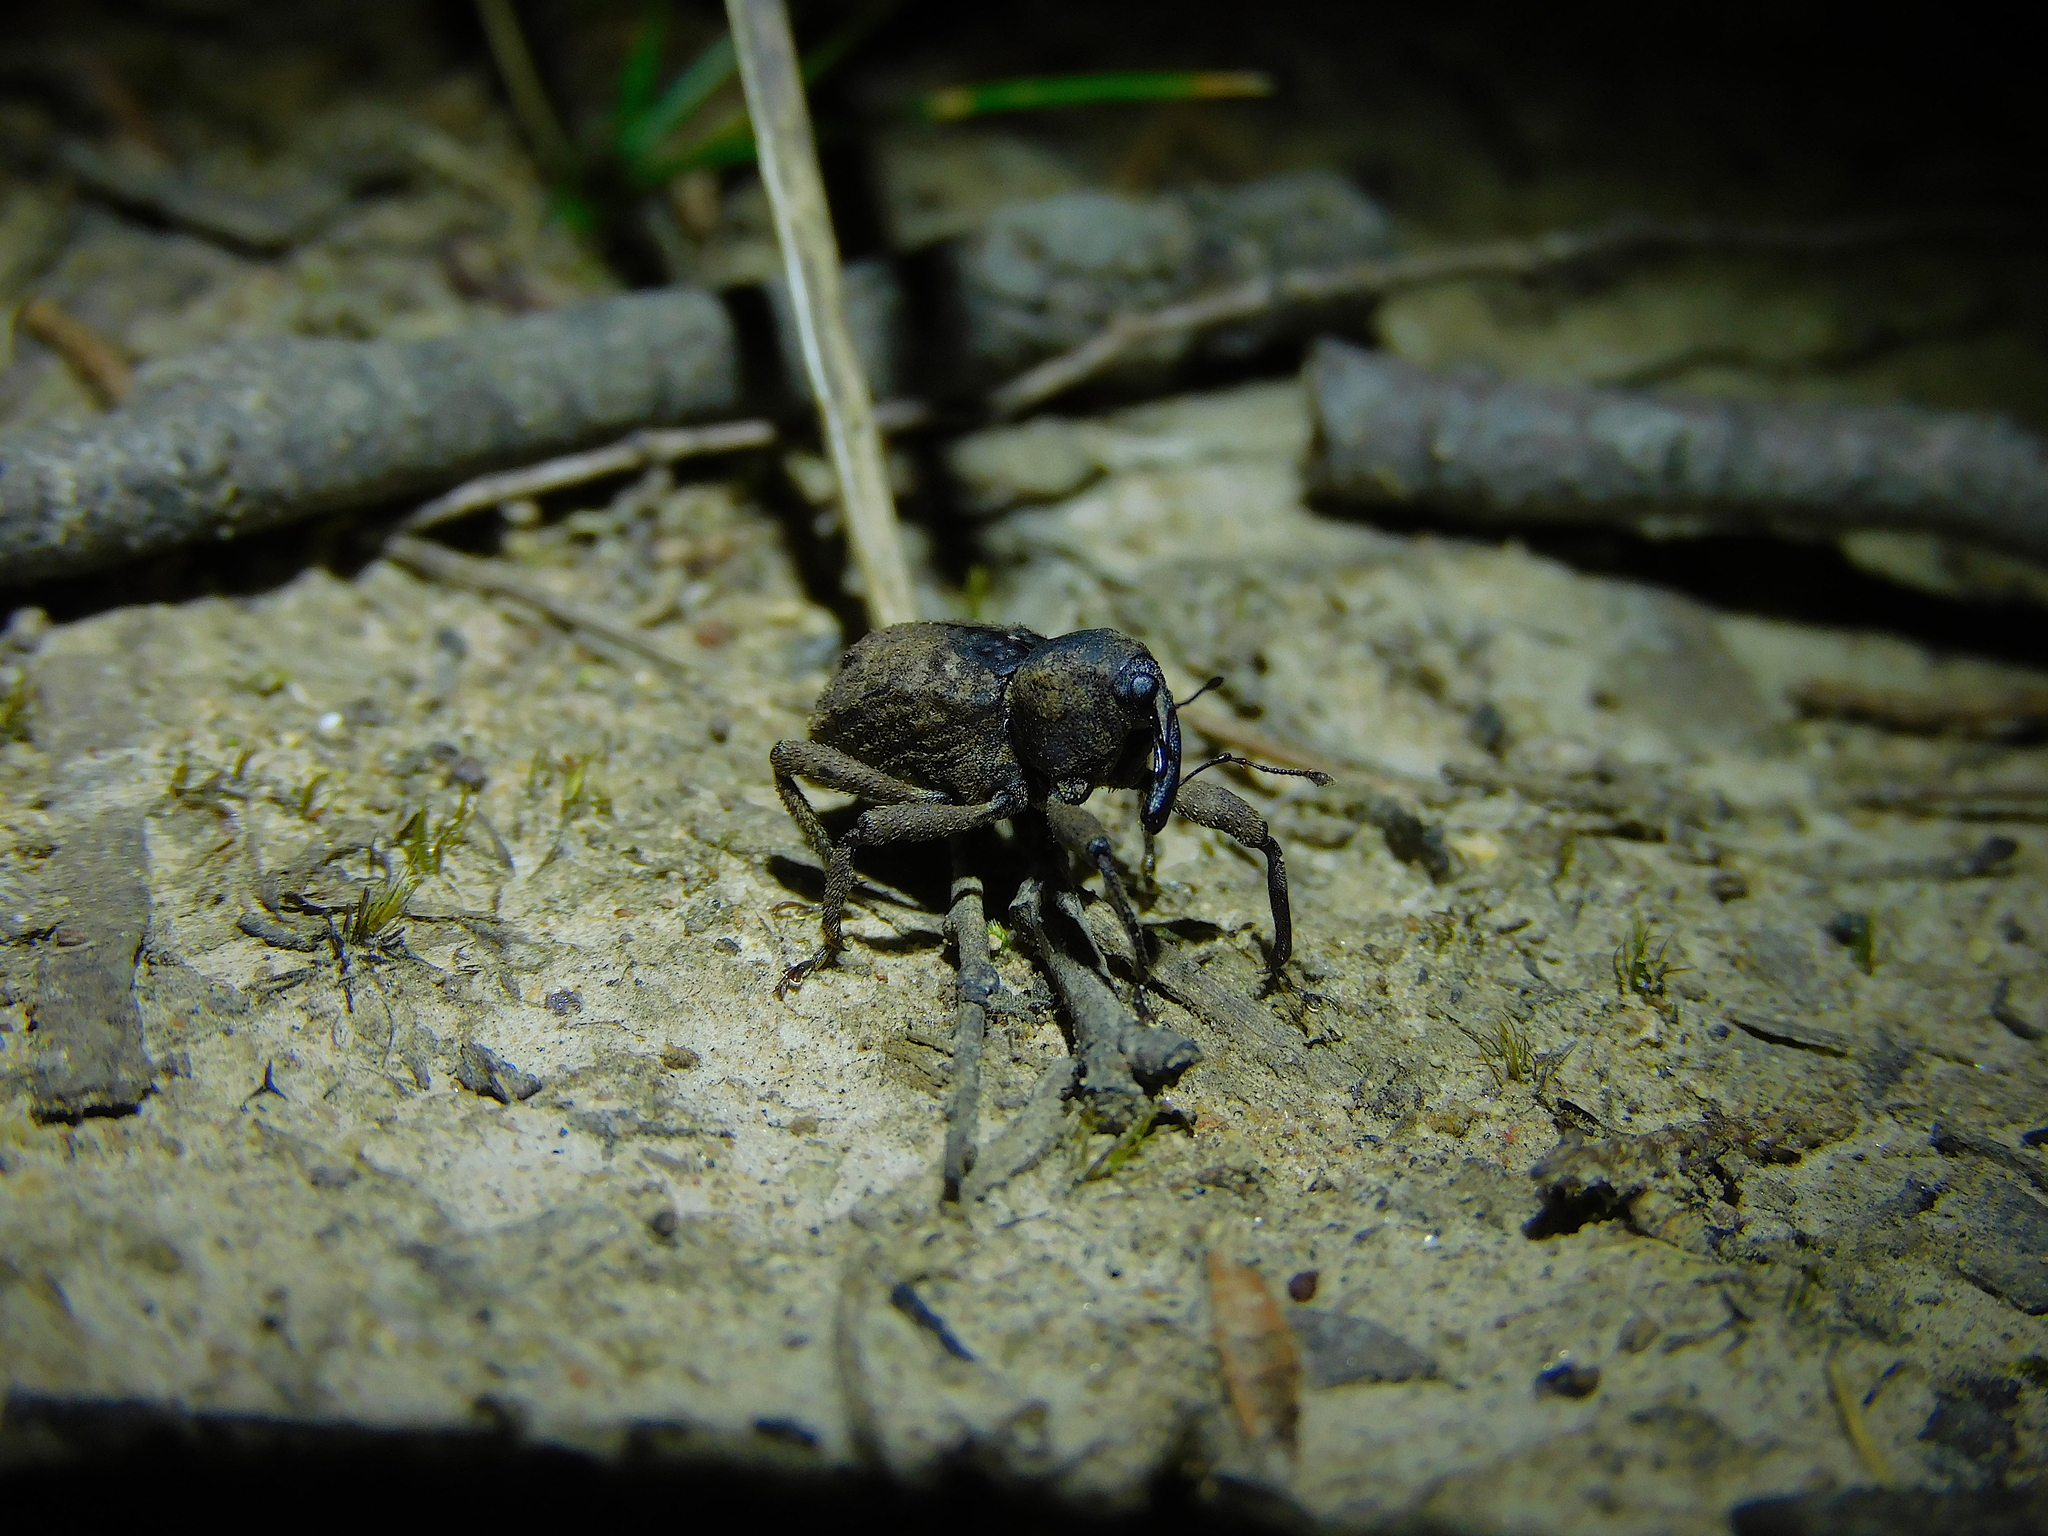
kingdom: Animalia
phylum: Arthropoda
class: Insecta
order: Coleoptera
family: Curculionidae
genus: Pachyporopterus
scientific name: Pachyporopterus satyrus
